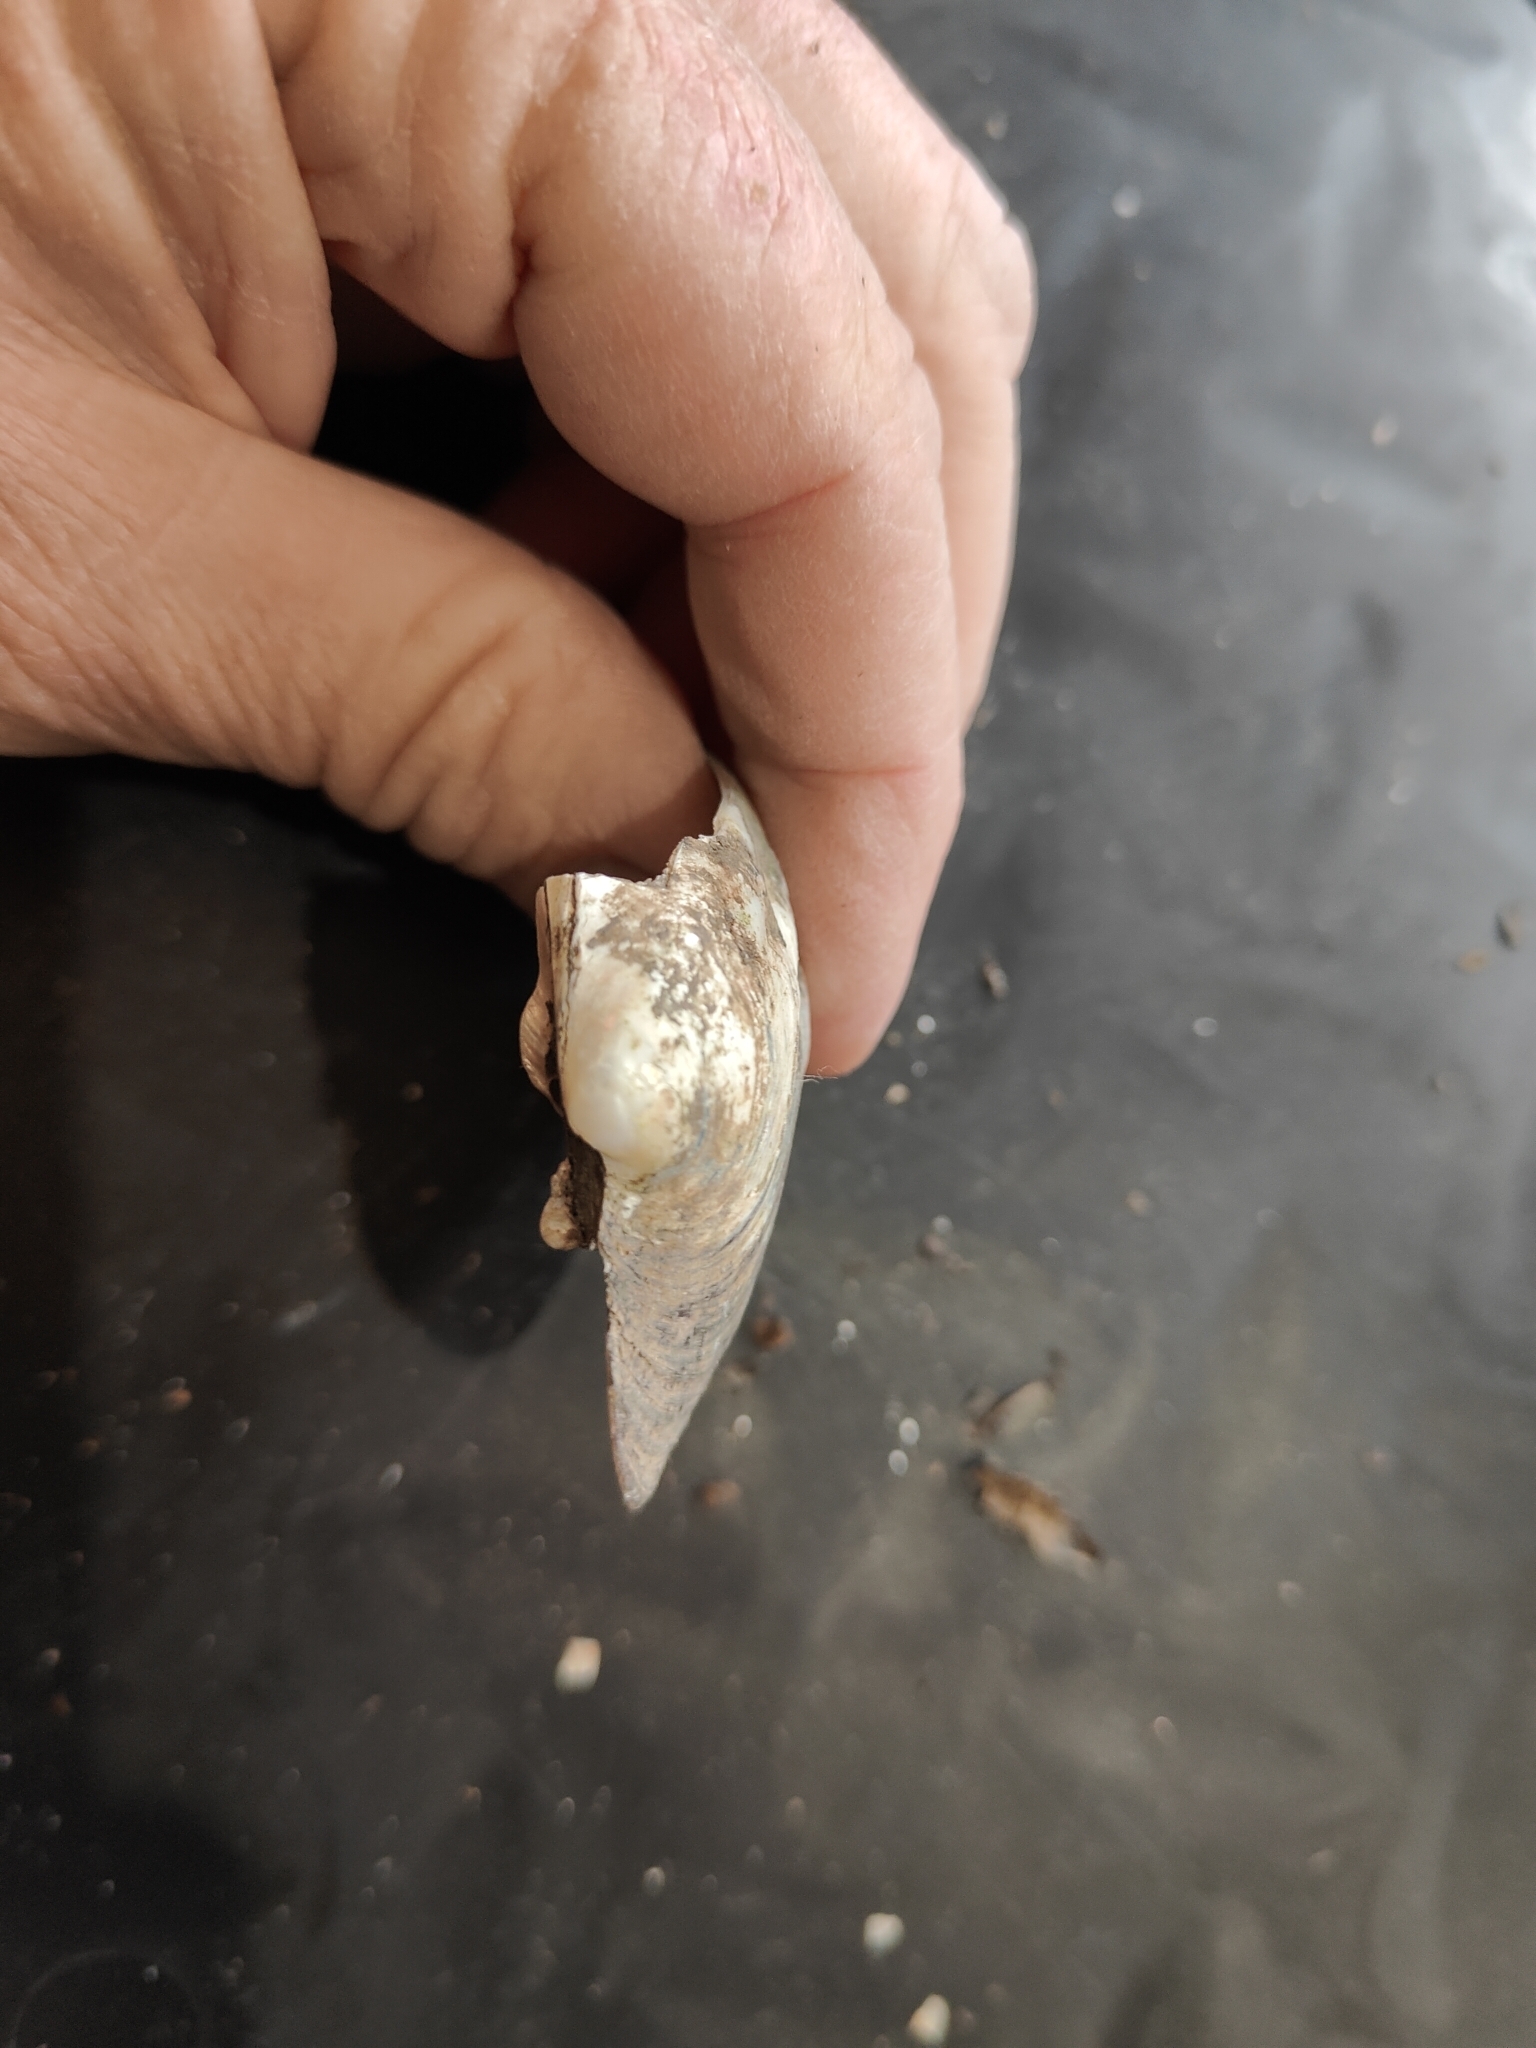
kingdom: Animalia
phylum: Mollusca
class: Bivalvia
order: Unionida
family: Unionidae
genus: Amblema
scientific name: Amblema plicata
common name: Threeridge
